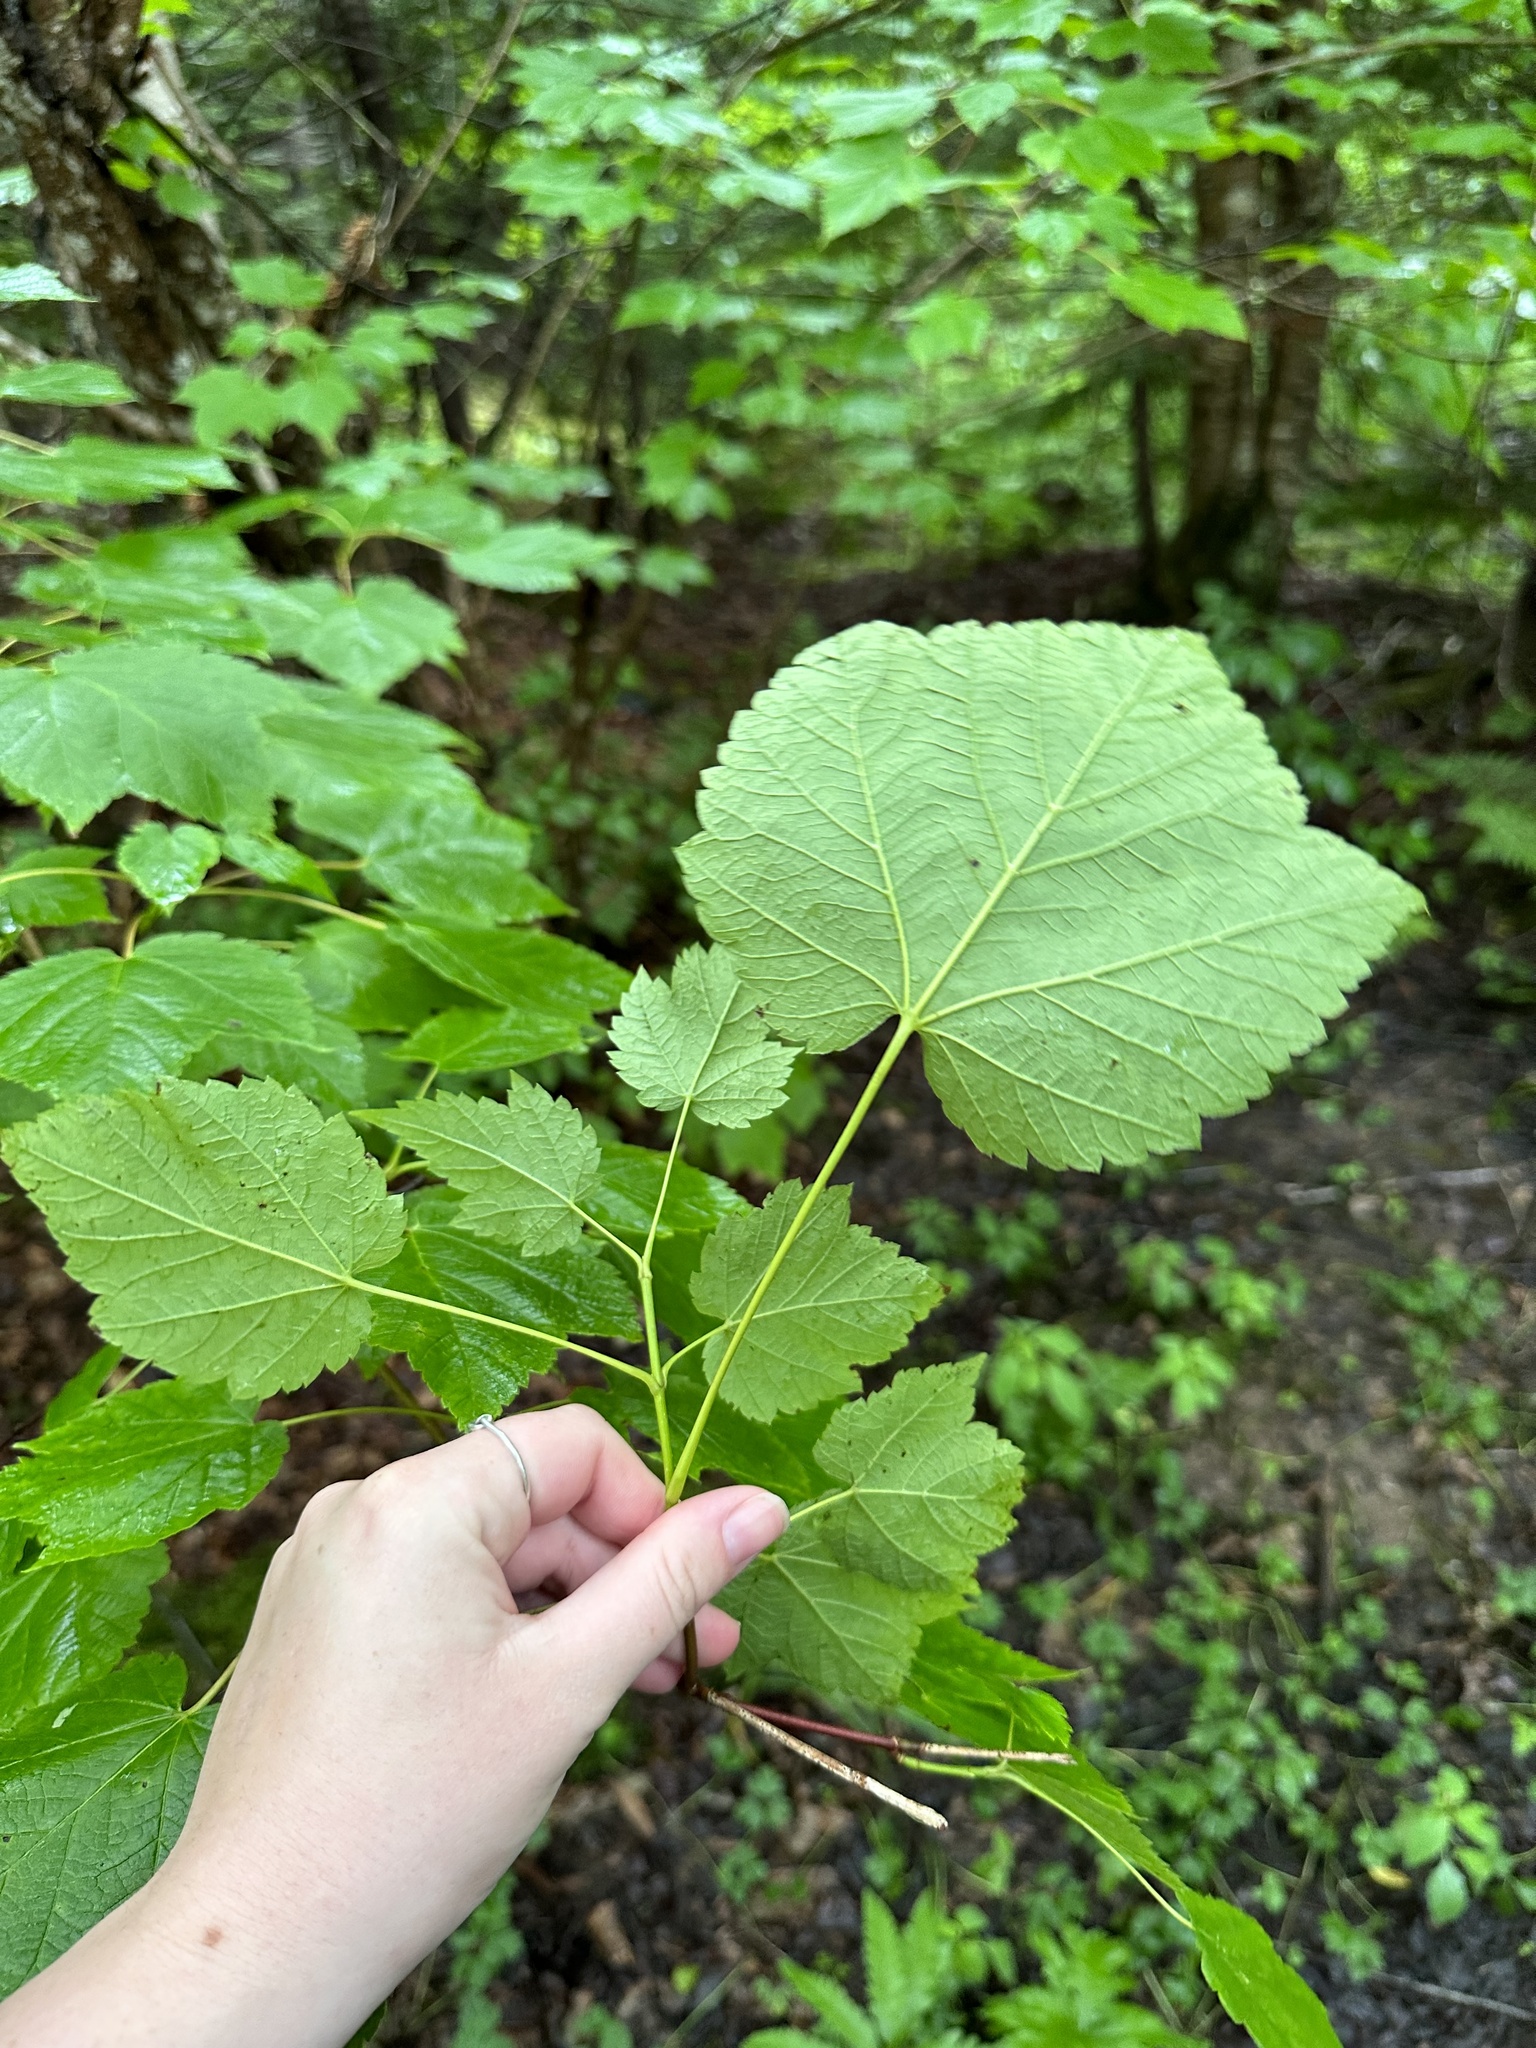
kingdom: Plantae
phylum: Tracheophyta
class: Magnoliopsida
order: Sapindales
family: Sapindaceae
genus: Acer
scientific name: Acer spicatum
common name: Mountain maple
